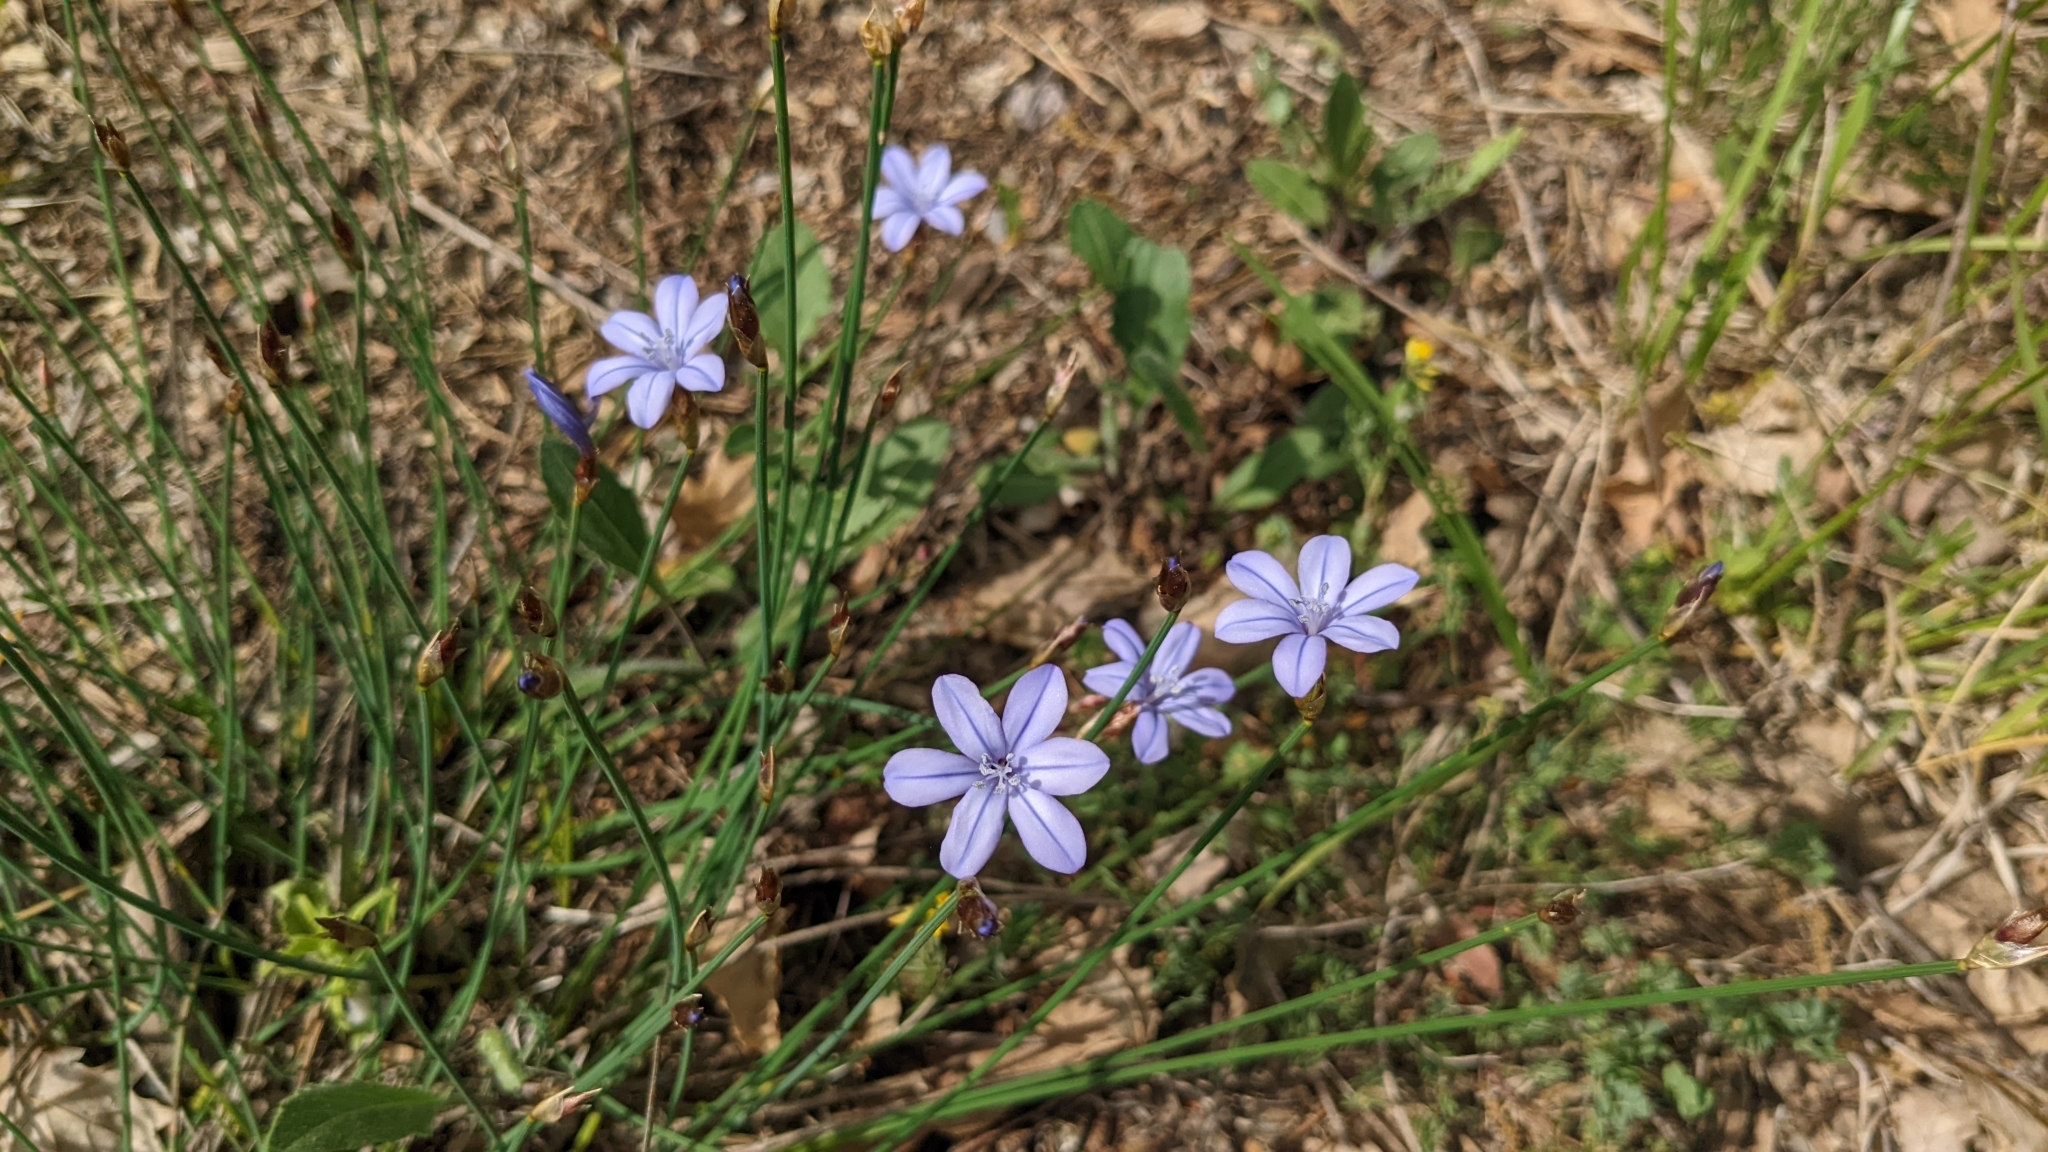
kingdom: Plantae
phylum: Tracheophyta
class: Liliopsida
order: Asparagales
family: Asparagaceae
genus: Aphyllanthes
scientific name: Aphyllanthes monspeliensis
